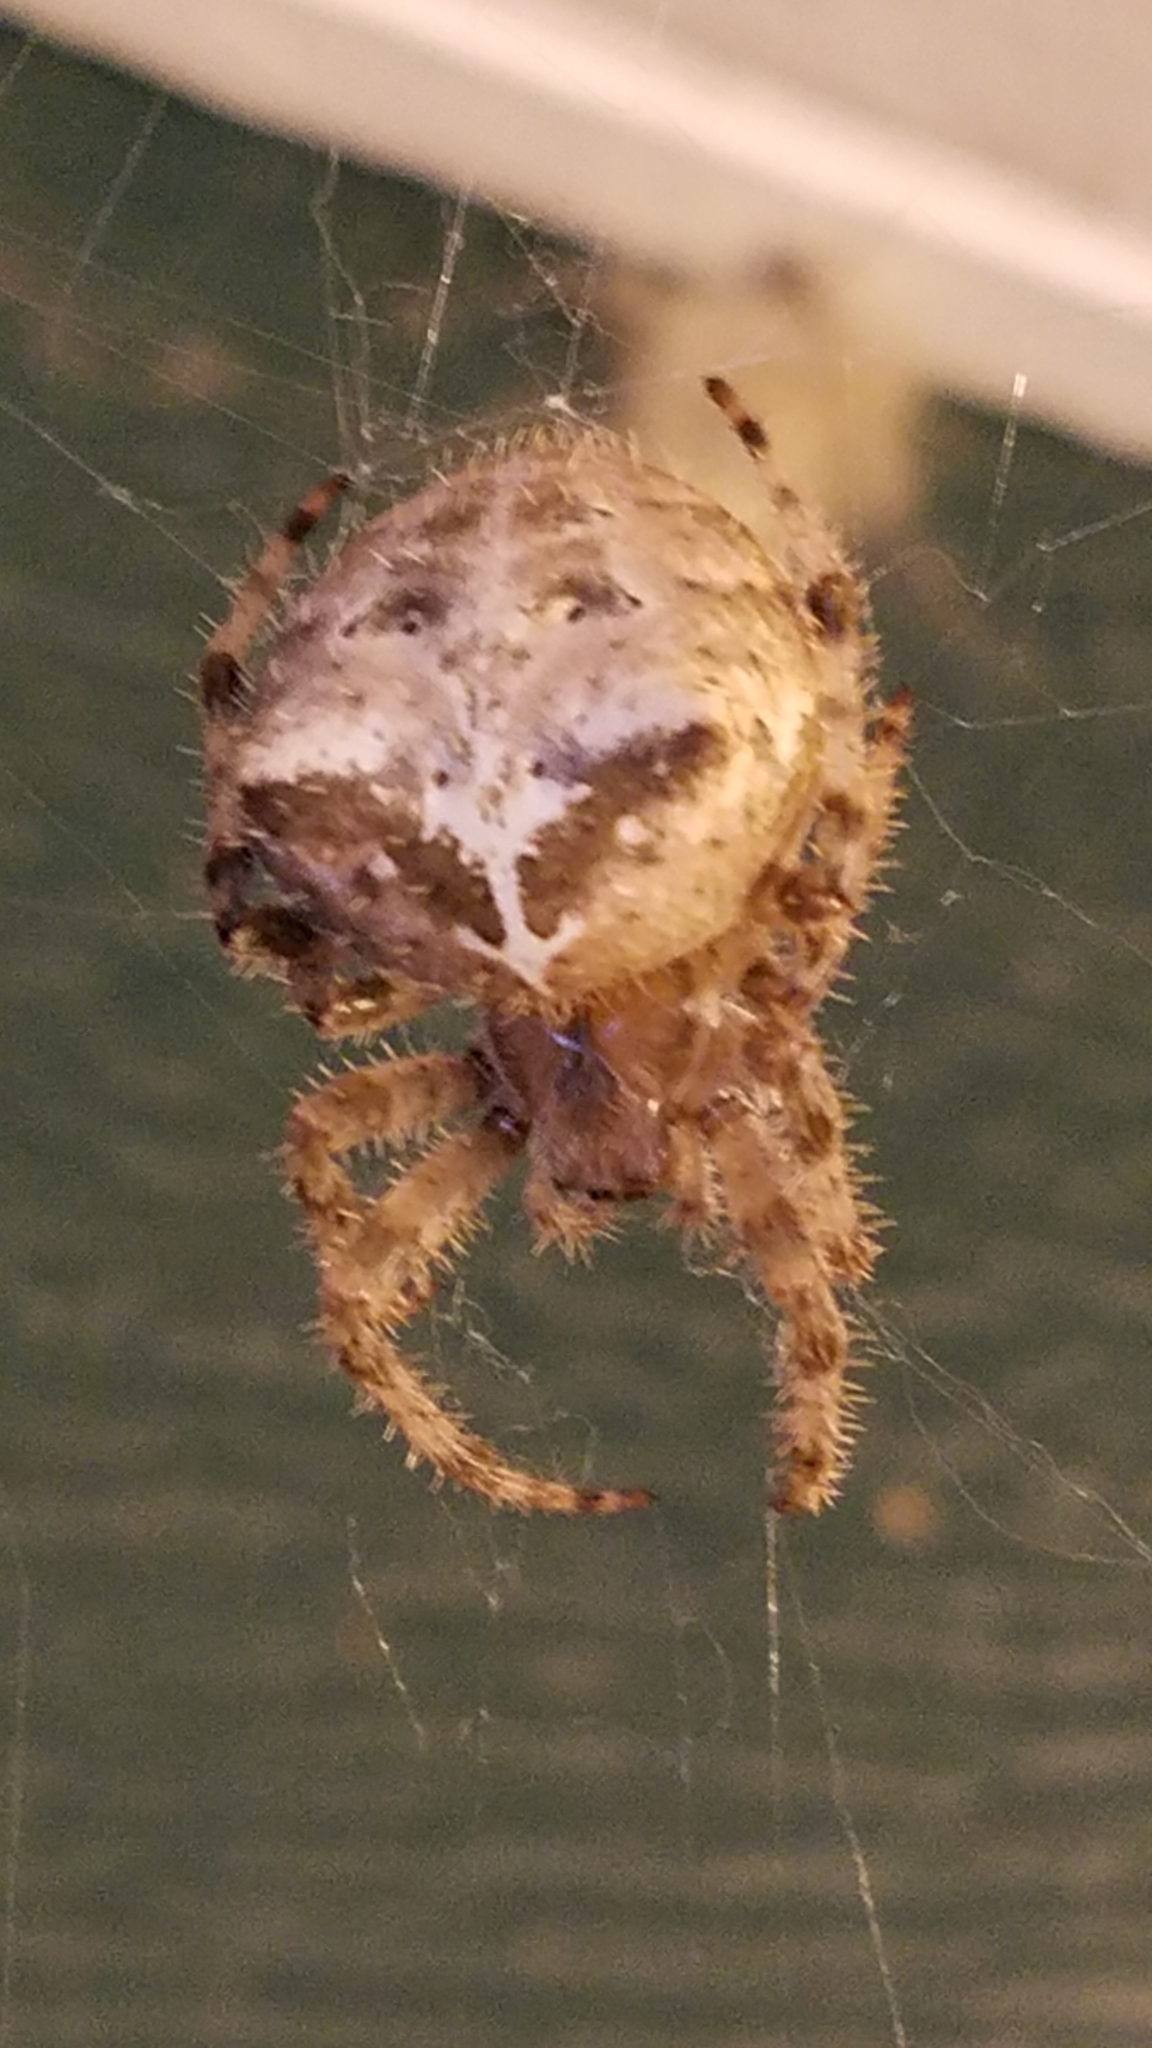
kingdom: Animalia
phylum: Arthropoda
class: Arachnida
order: Araneae
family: Araneidae
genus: Araneus
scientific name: Araneus gemmoides
